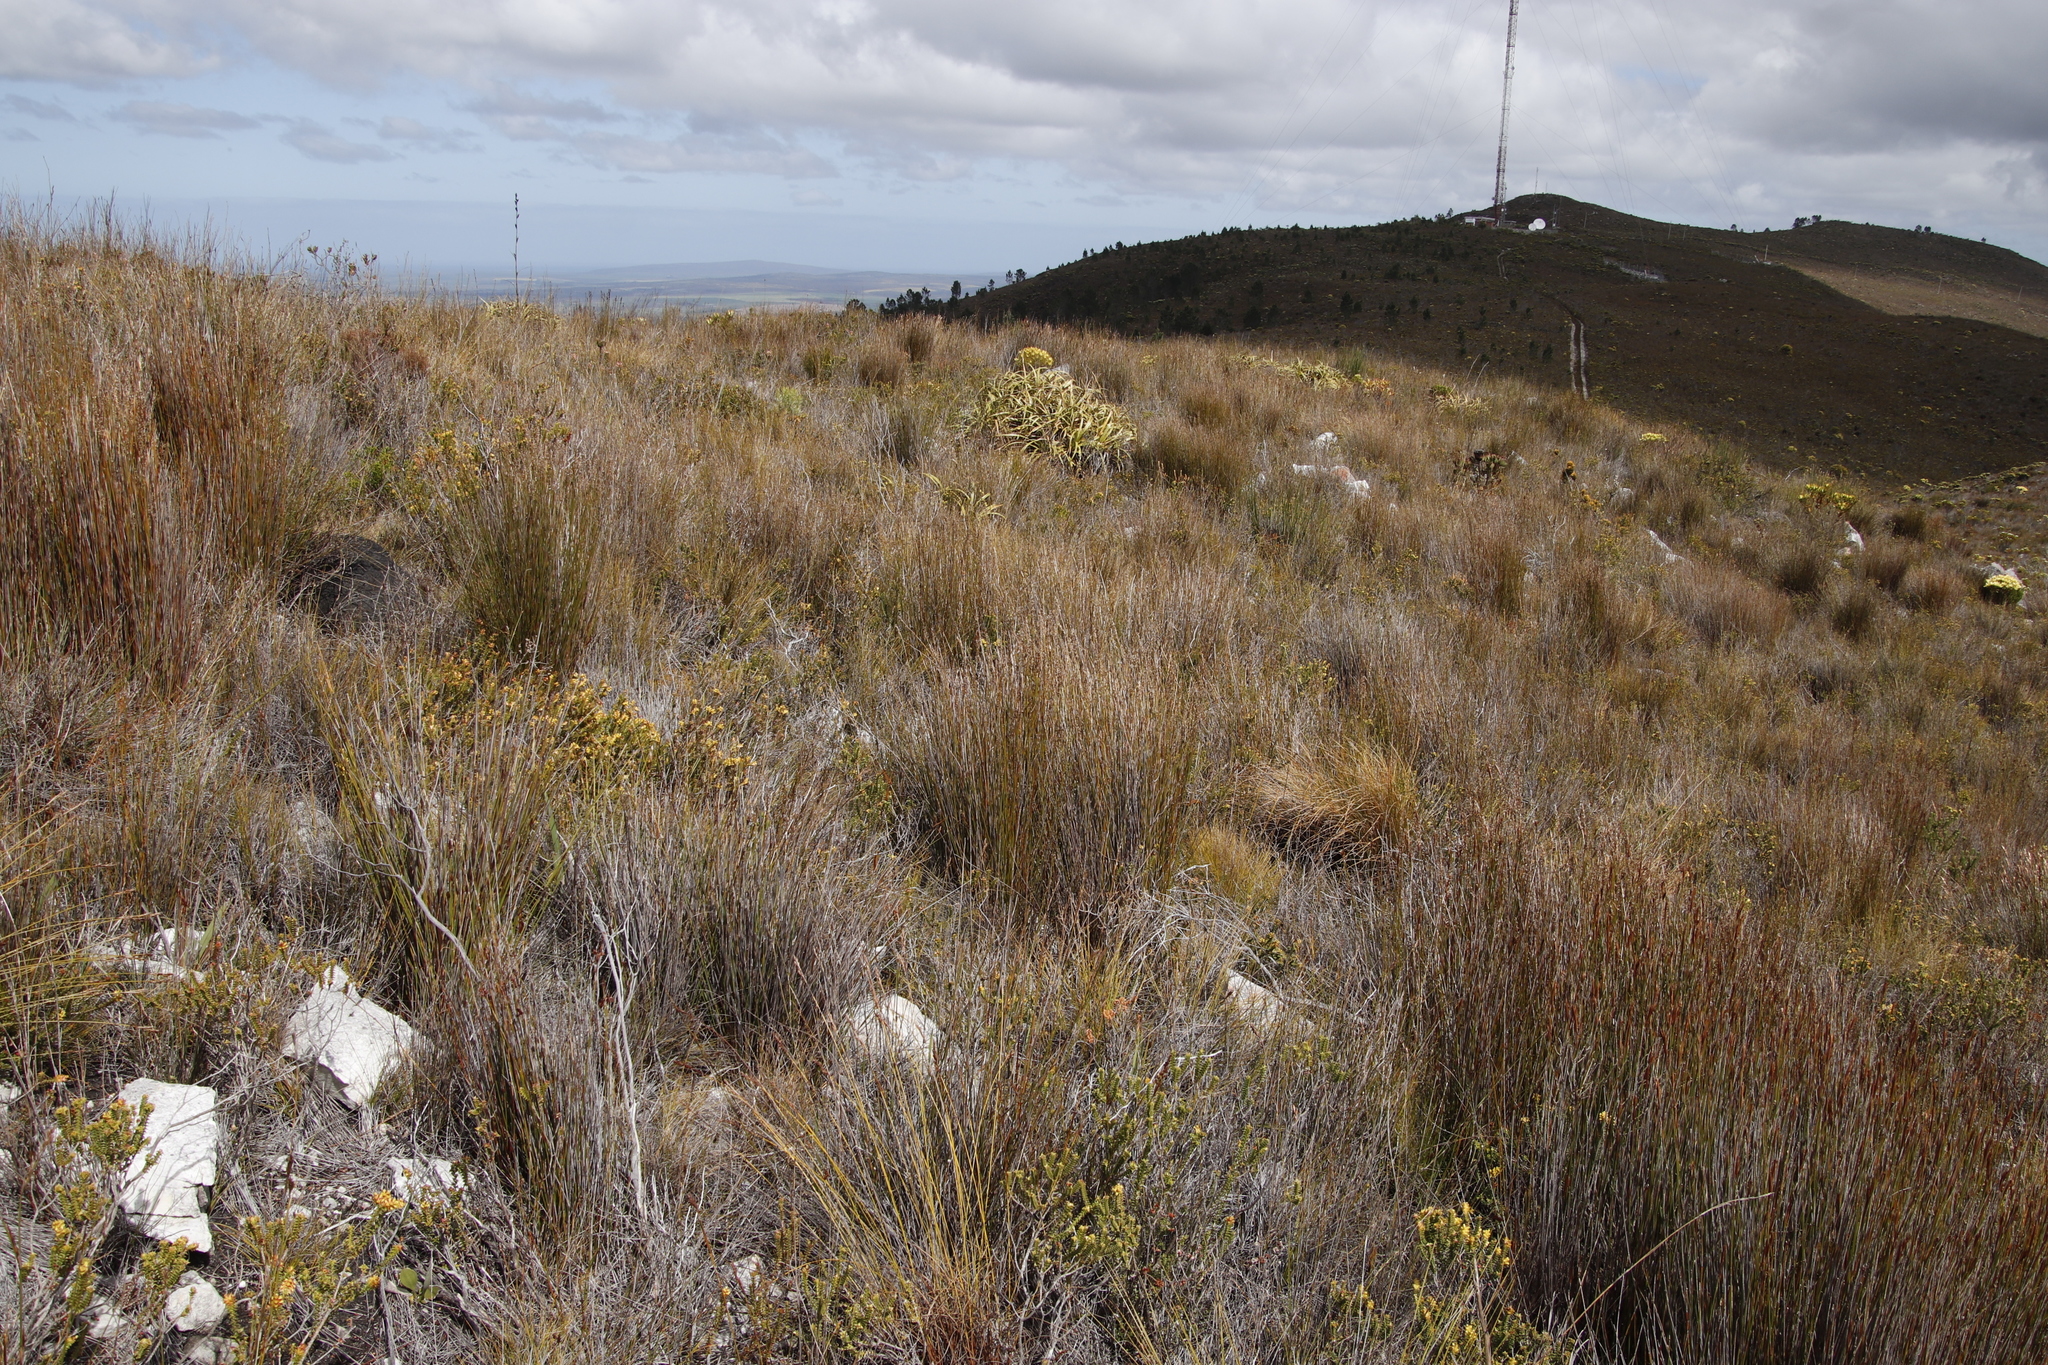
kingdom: Plantae
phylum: Tracheophyta
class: Liliopsida
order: Poales
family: Cyperaceae
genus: Tetraria
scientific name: Tetraria thermalis
